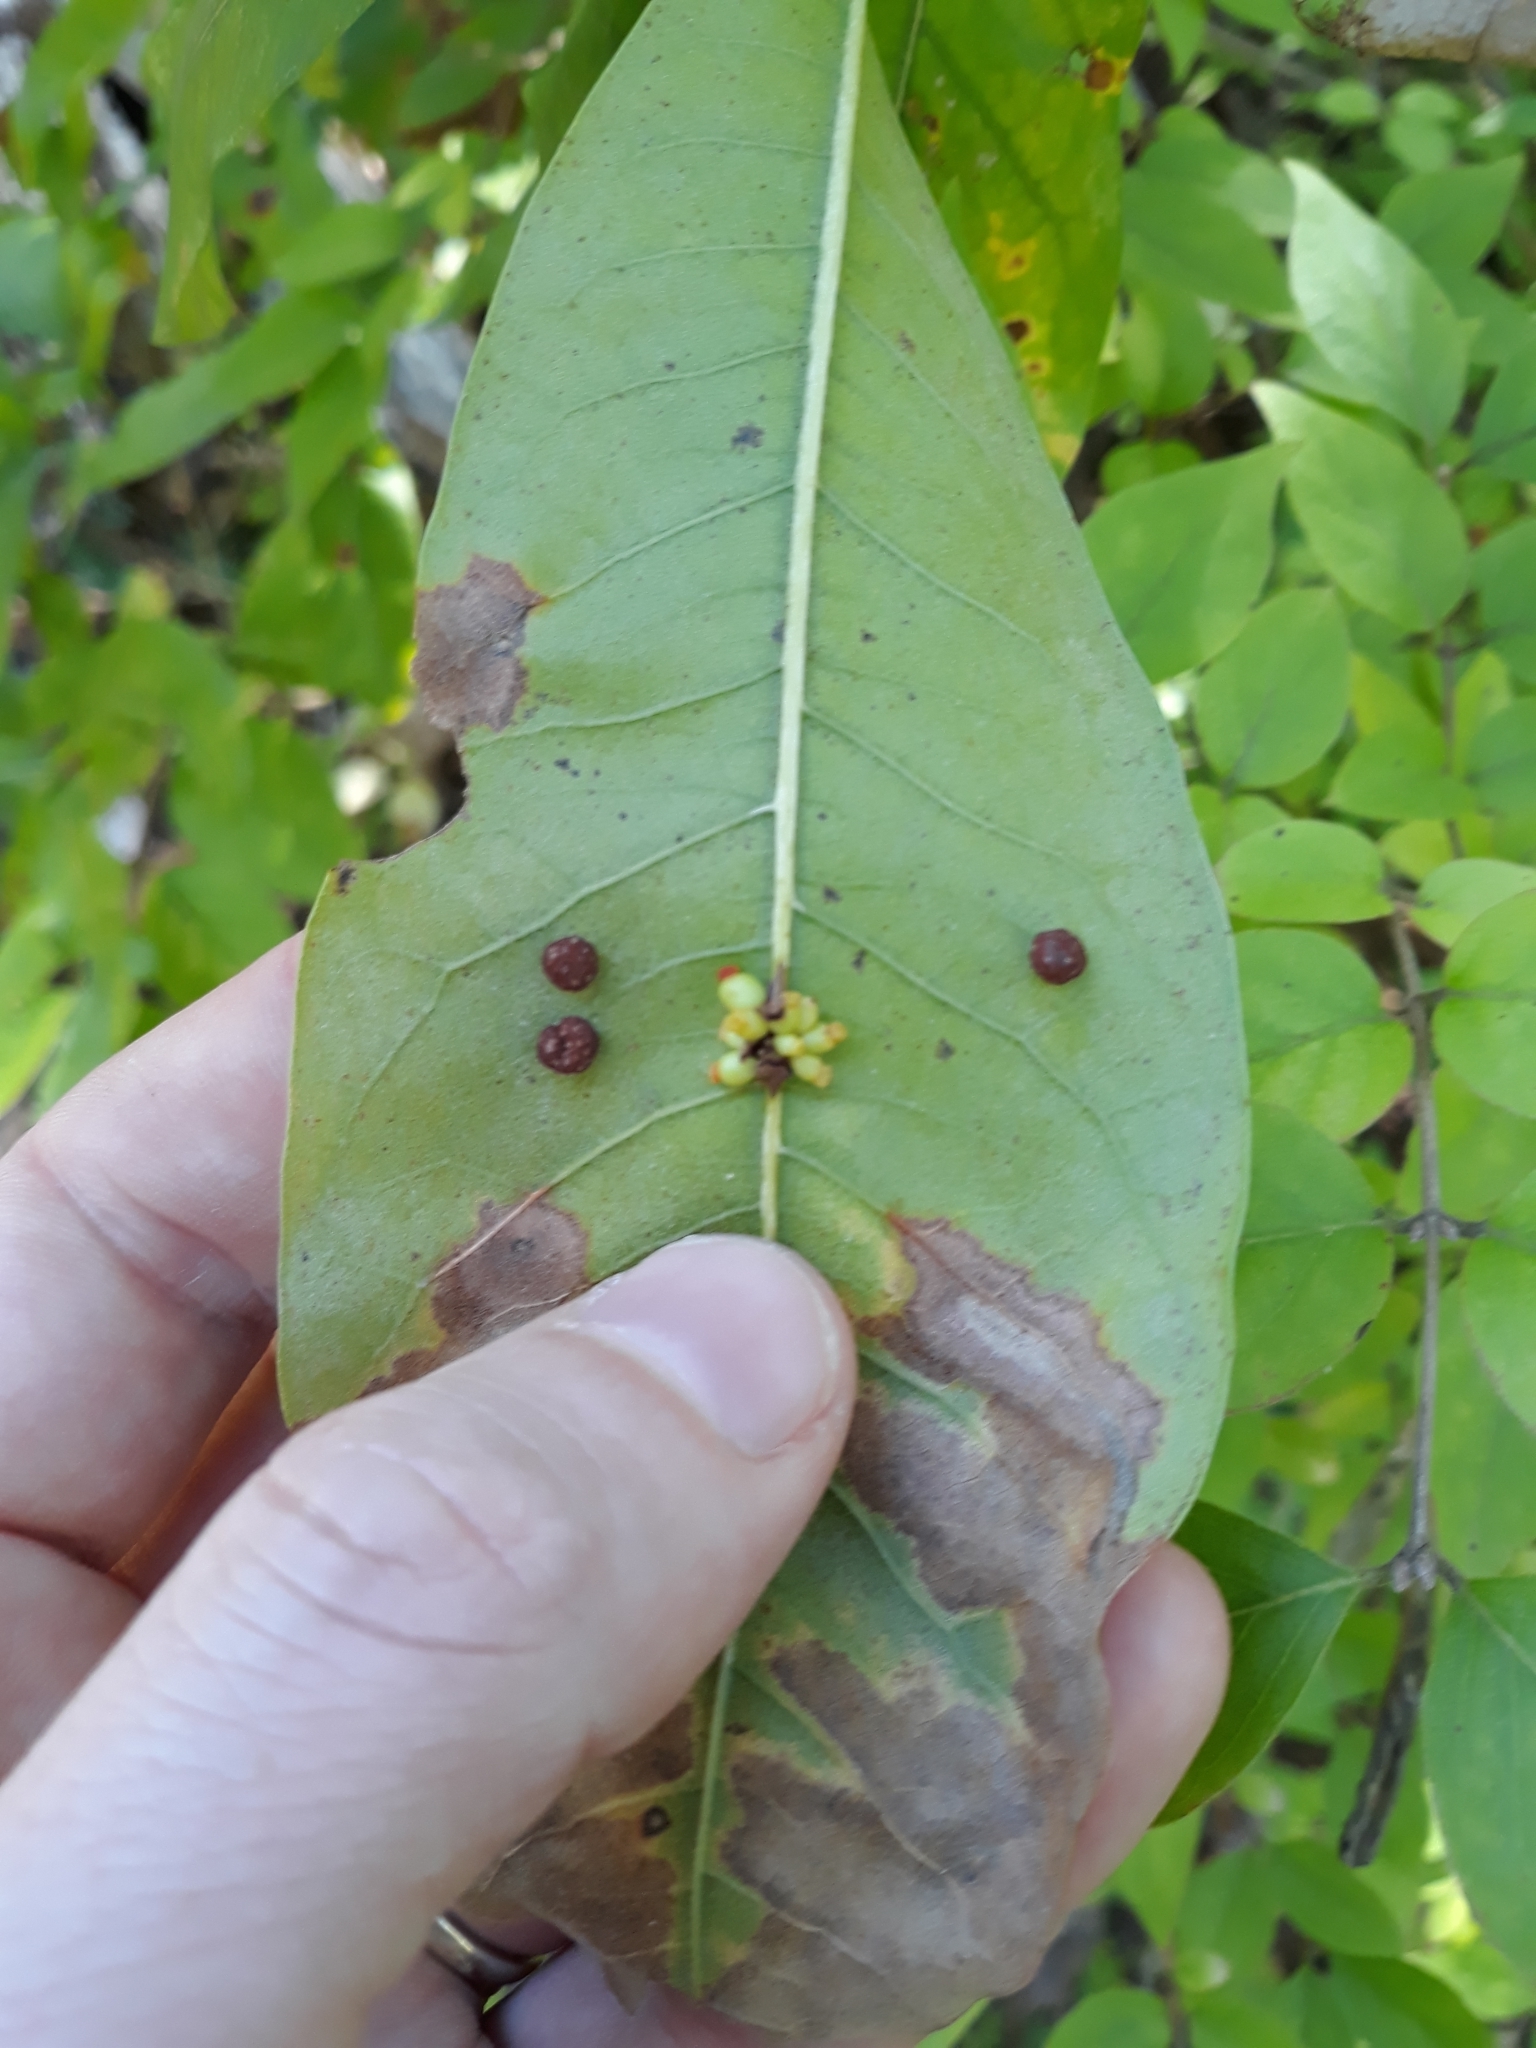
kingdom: Animalia
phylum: Arthropoda
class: Insecta
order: Hymenoptera
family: Cynipidae
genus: Kokkocynips
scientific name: Kokkocynips decidua
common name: Oak wheat gall
